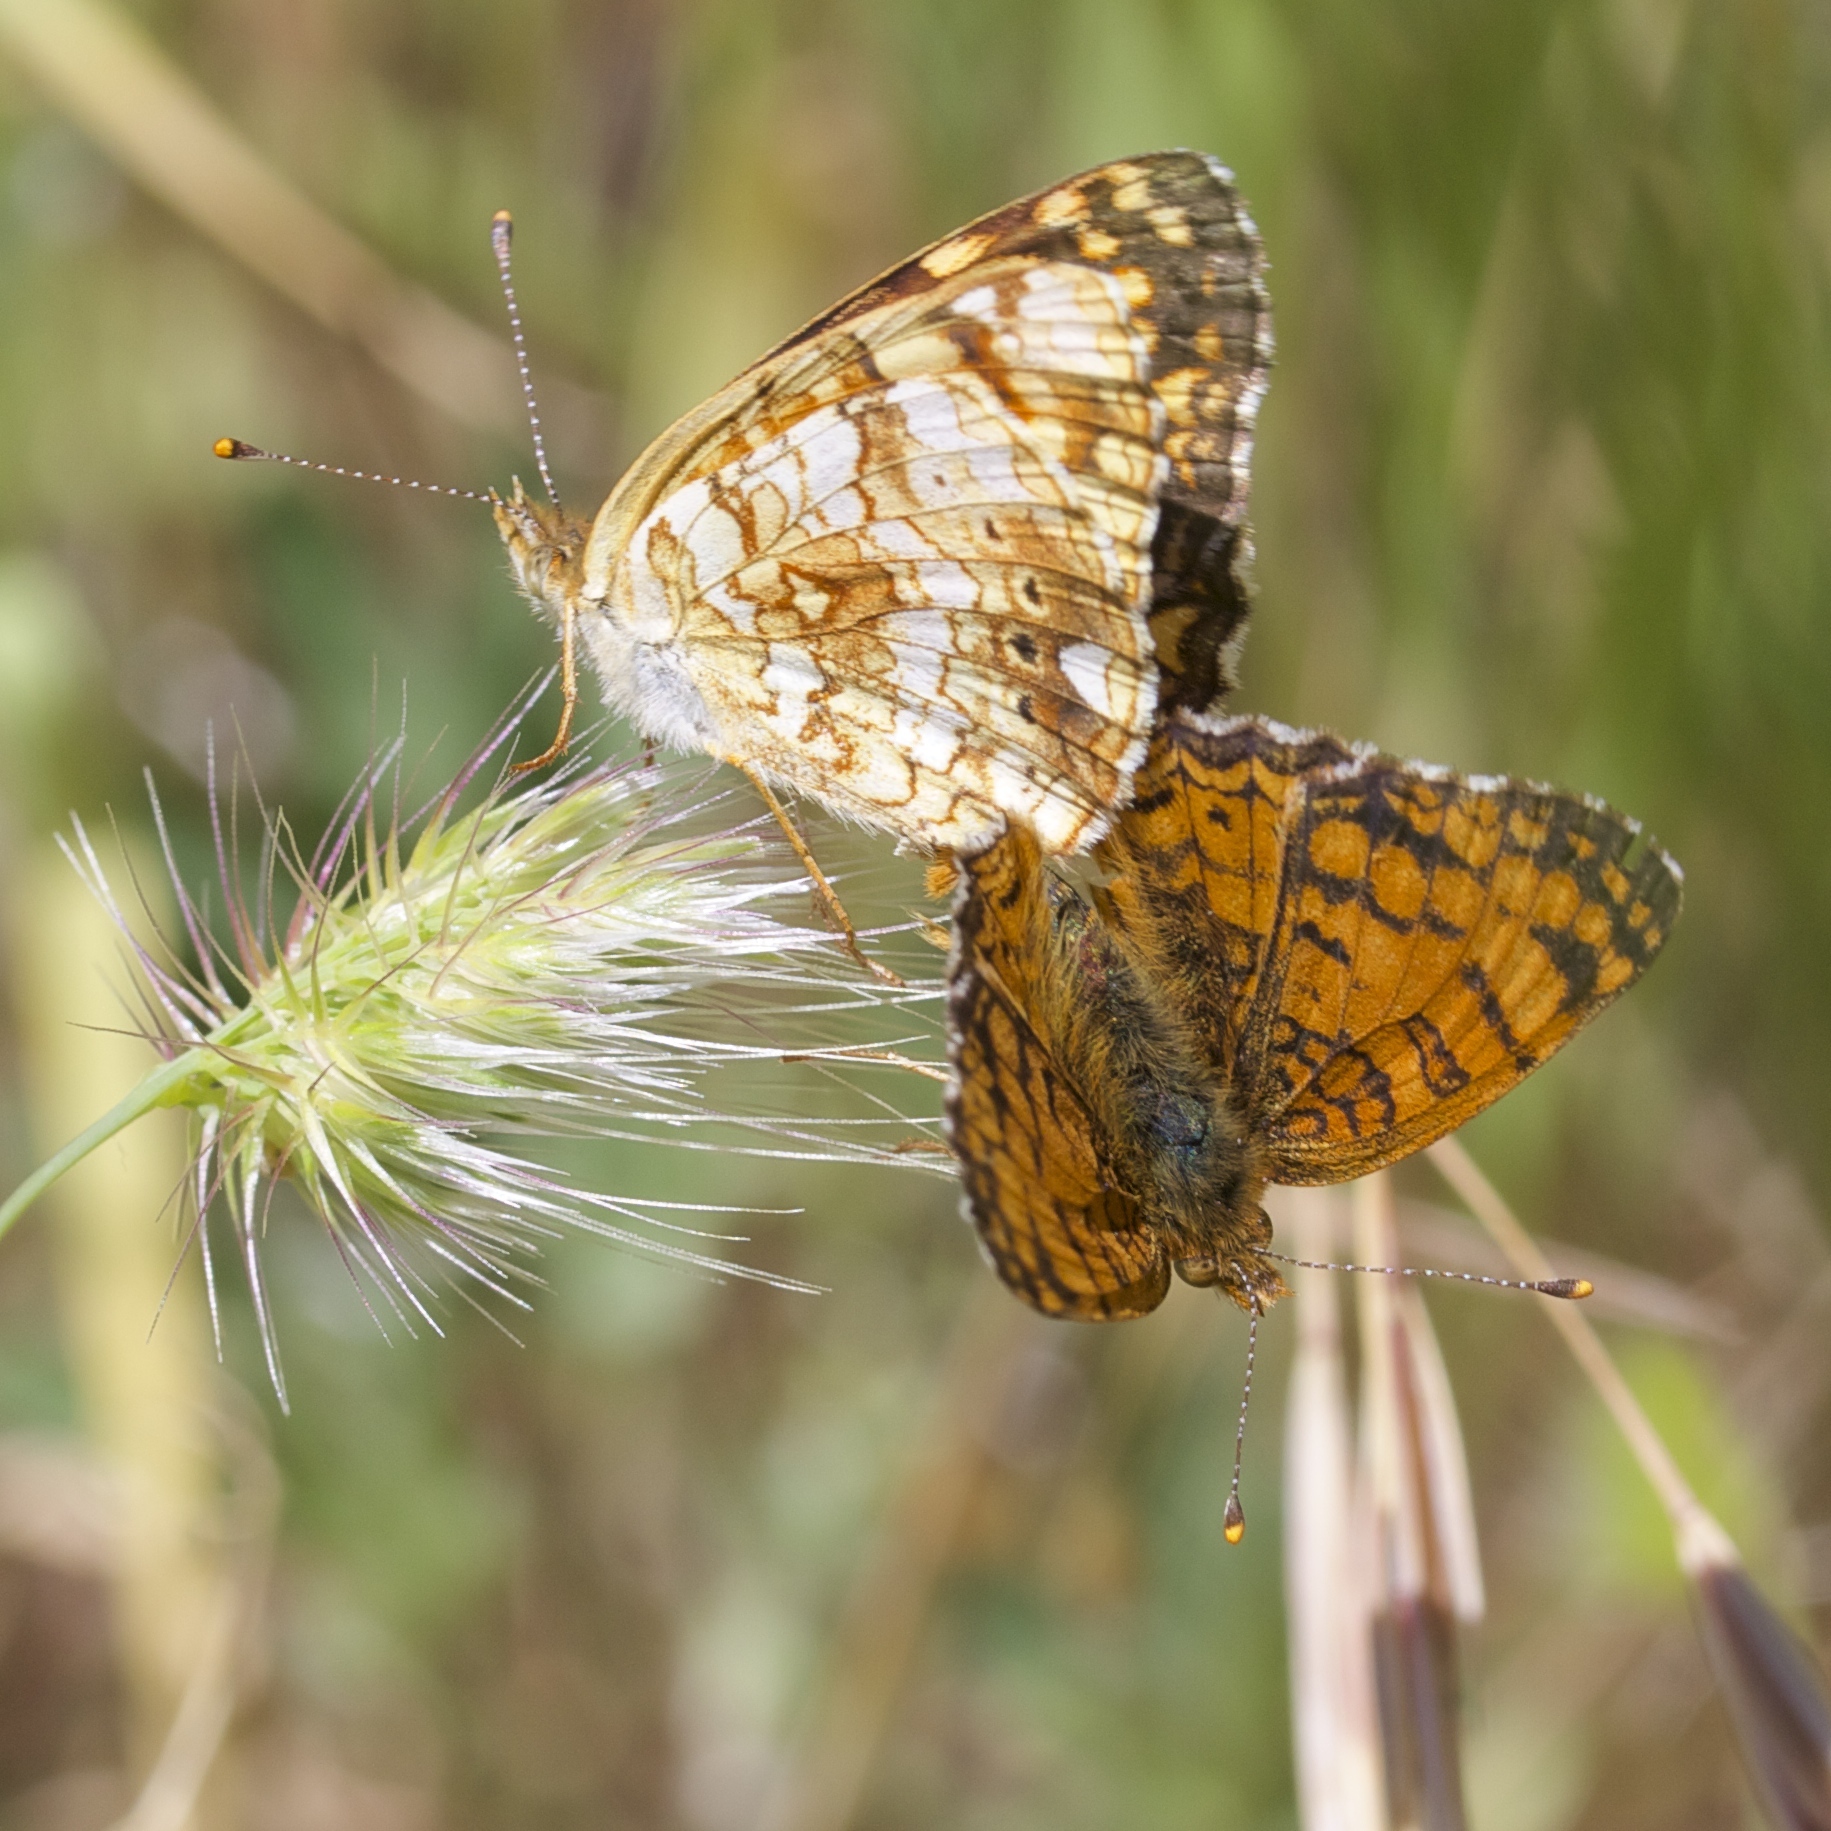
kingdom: Animalia
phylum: Arthropoda
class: Insecta
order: Lepidoptera
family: Nymphalidae
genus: Eresia
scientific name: Eresia aveyrona
